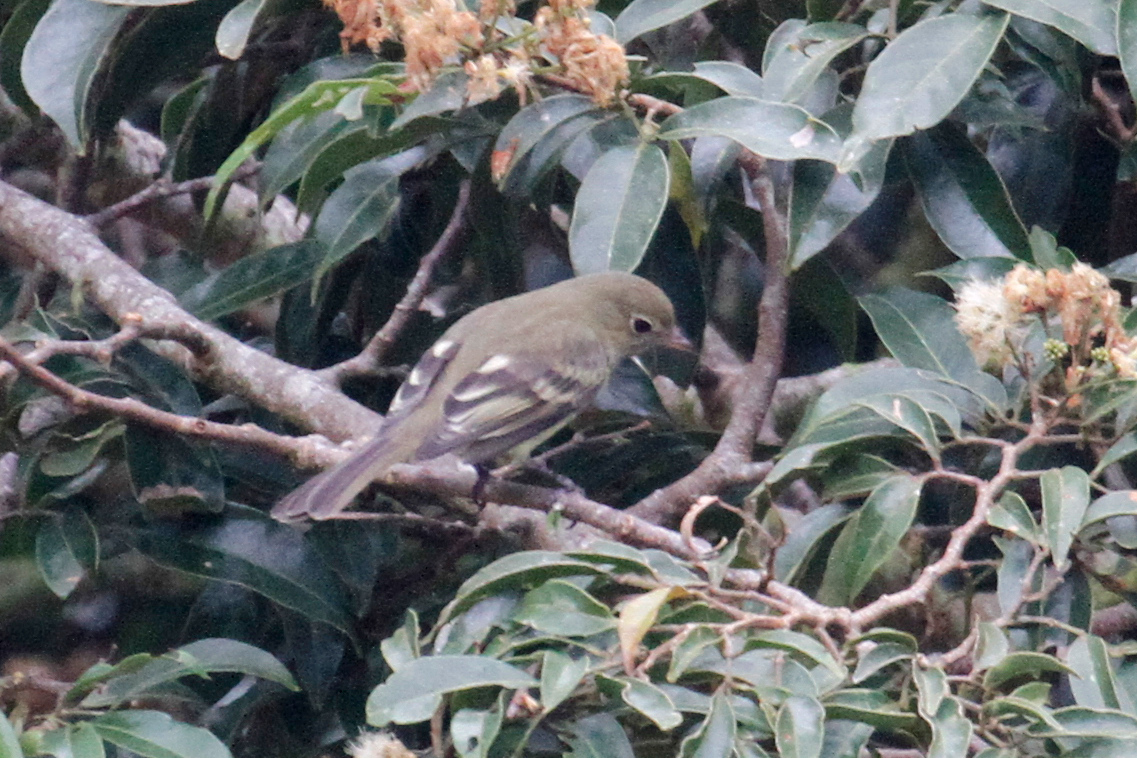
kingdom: Animalia
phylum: Chordata
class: Aves
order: Passeriformes
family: Tyrannidae
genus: Elaenia
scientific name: Elaenia frantzii
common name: Mountain elaenia
